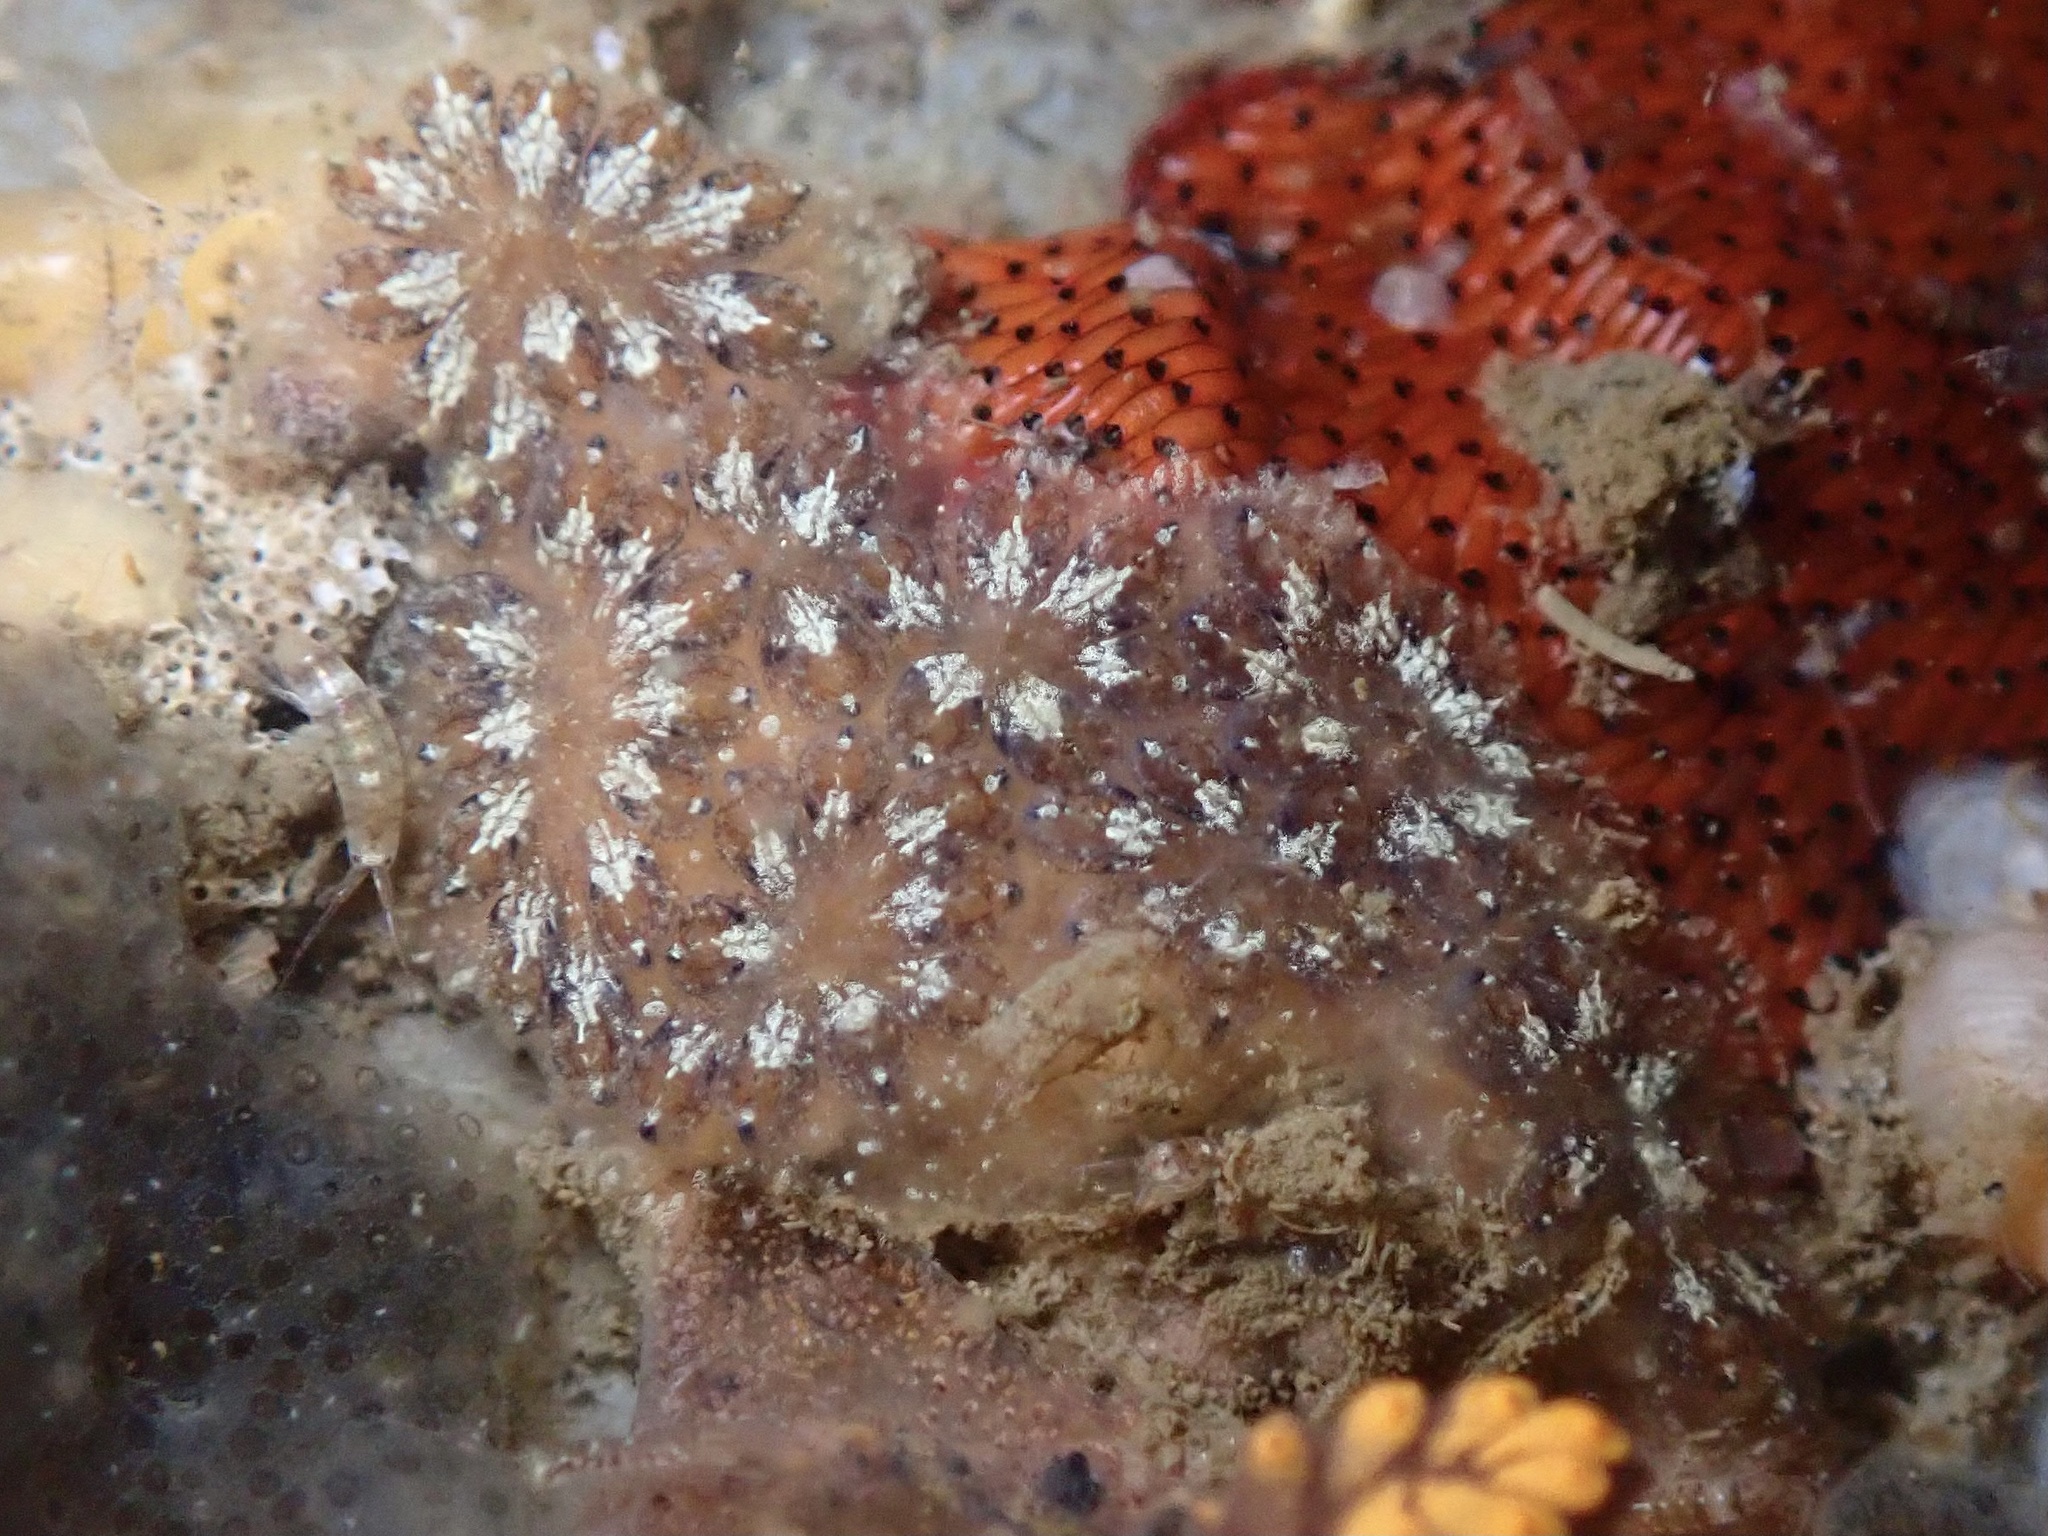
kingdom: Animalia
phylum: Chordata
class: Ascidiacea
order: Stolidobranchia
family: Styelidae
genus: Botryllus
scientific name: Botryllus schlosseri
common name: Golden star tunicate
